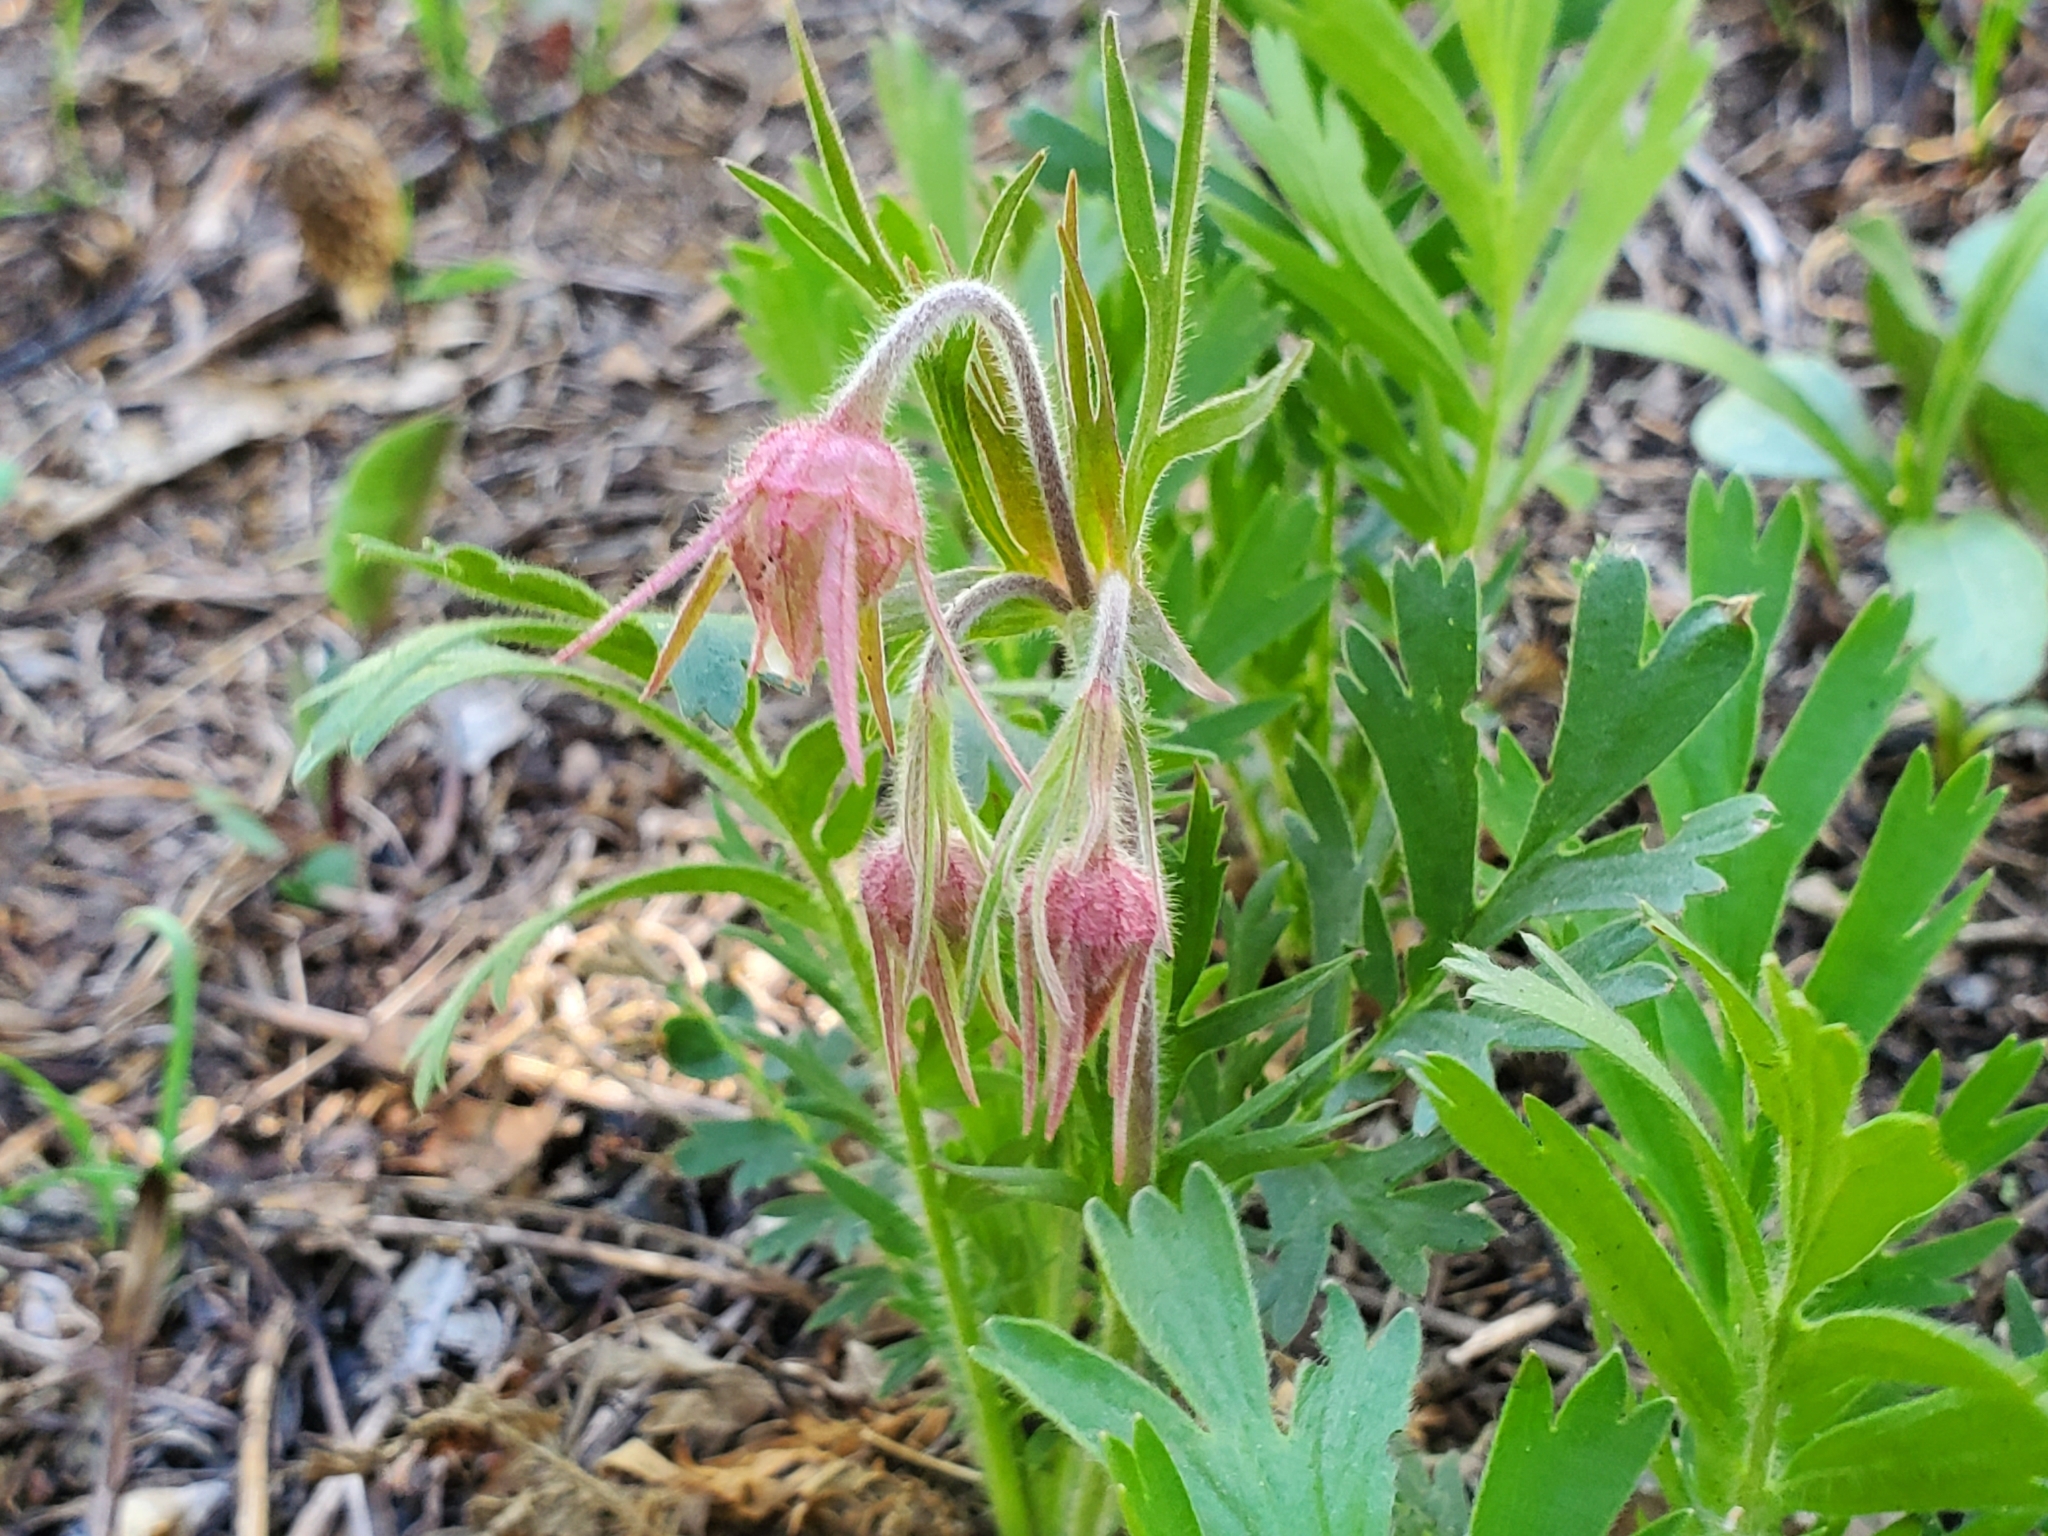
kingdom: Plantae
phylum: Tracheophyta
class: Magnoliopsida
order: Rosales
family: Rosaceae
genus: Geum
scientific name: Geum triflorum
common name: Old man's whiskers
